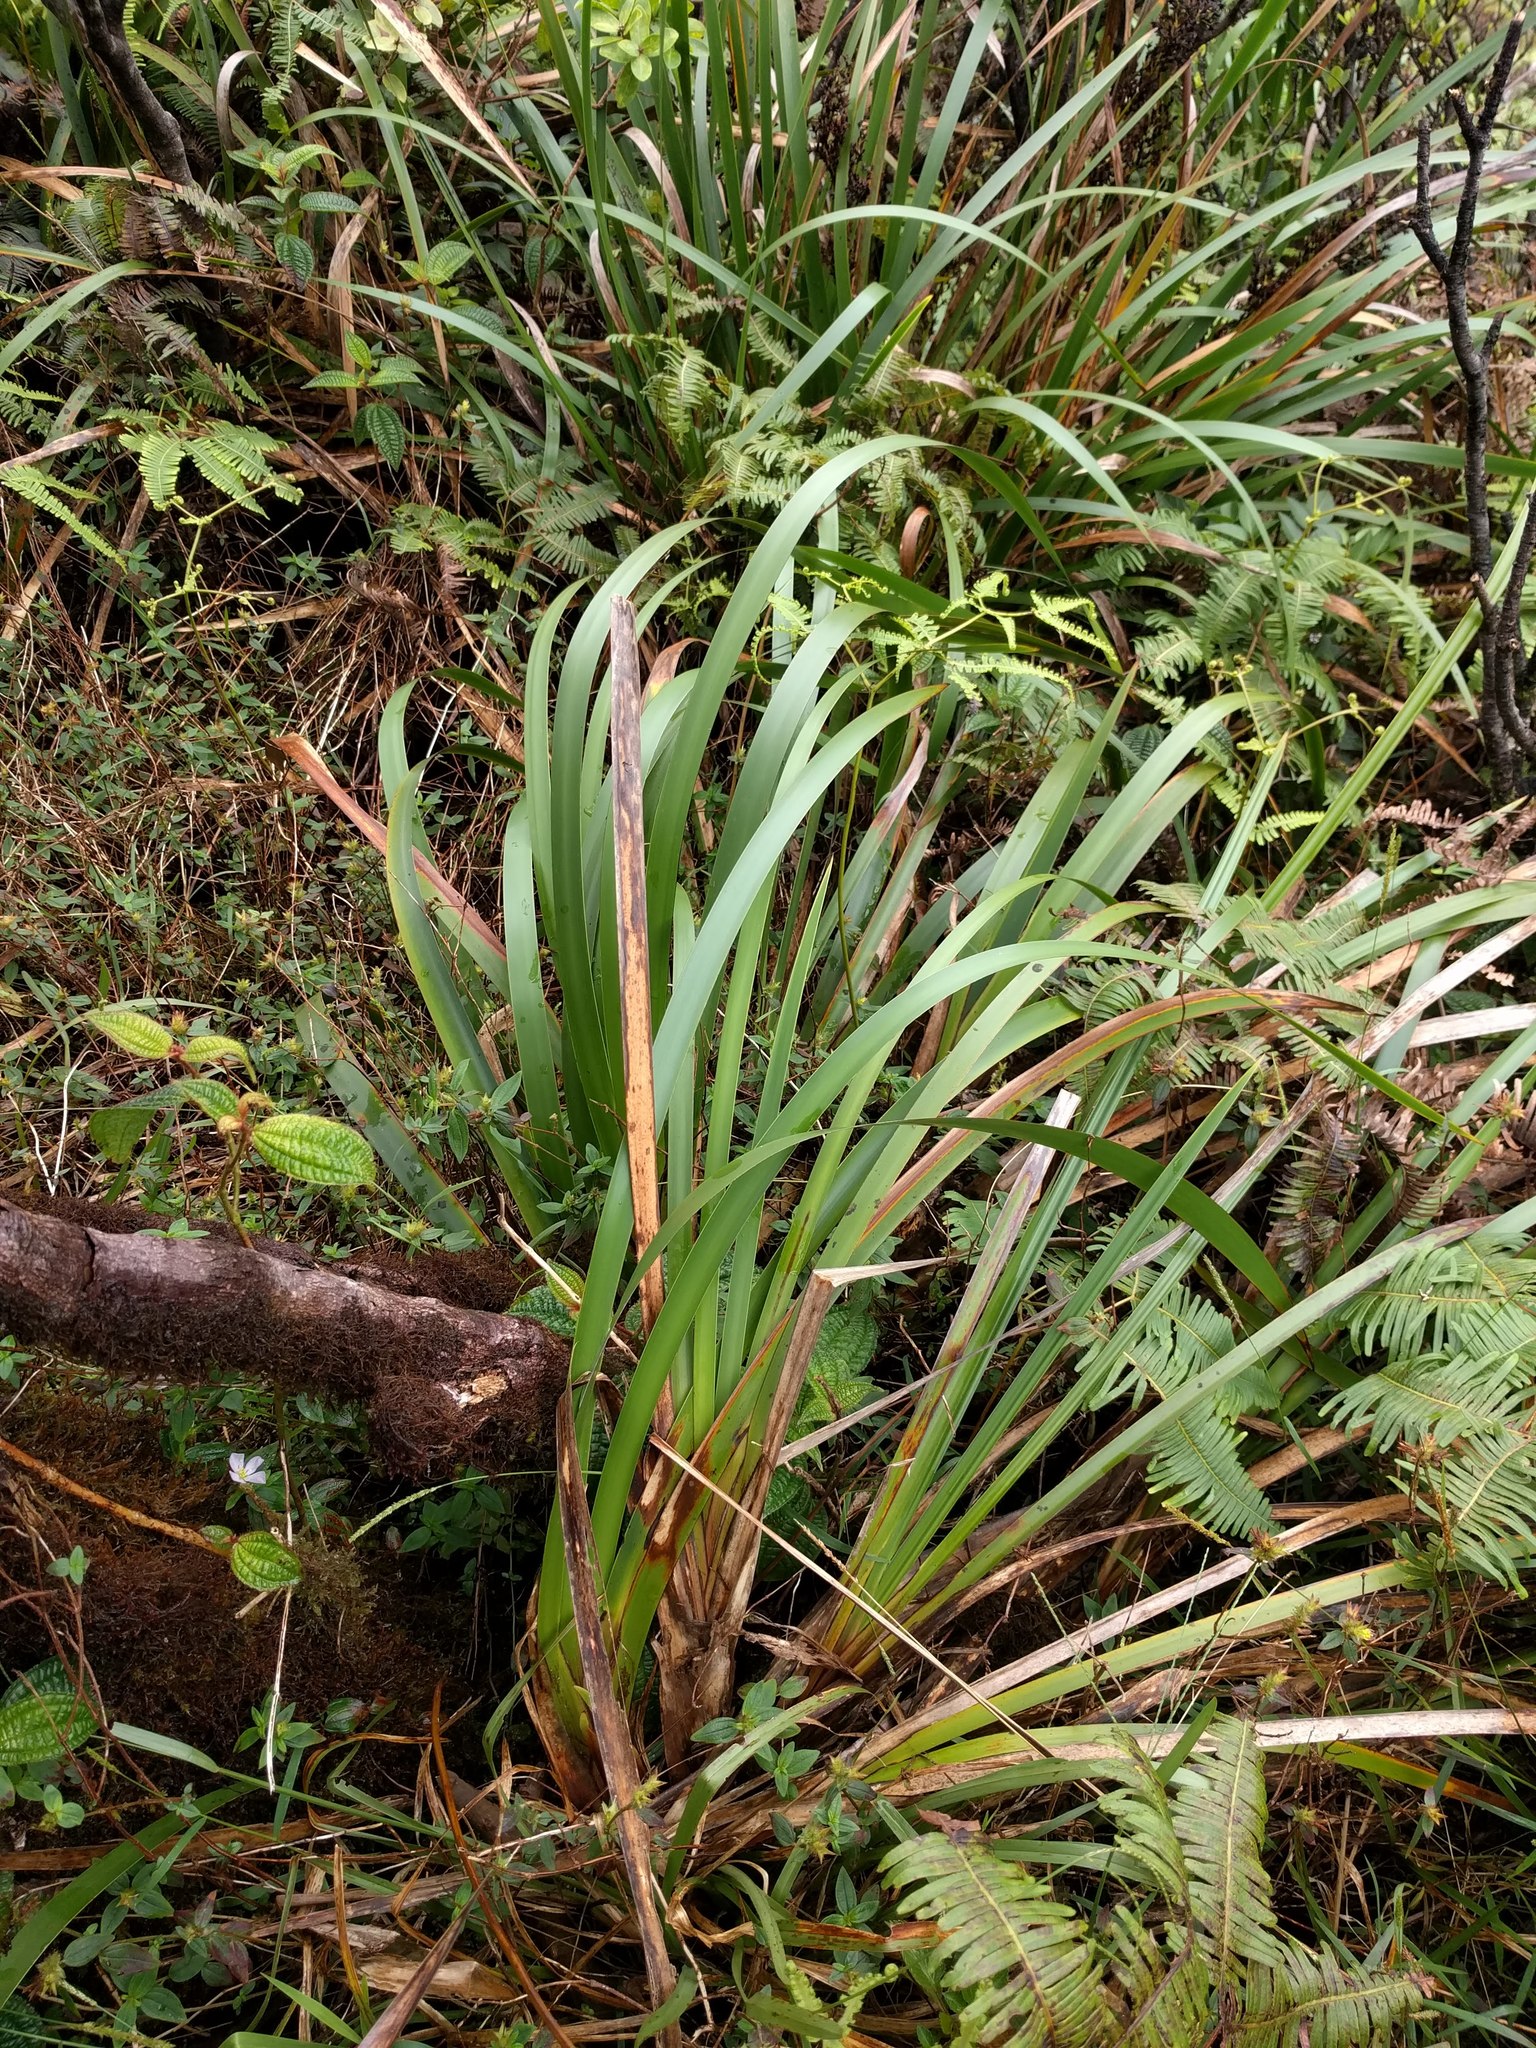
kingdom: Plantae
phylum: Tracheophyta
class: Liliopsida
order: Poales
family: Cyperaceae
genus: Machaerina
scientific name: Machaerina angustifolia
